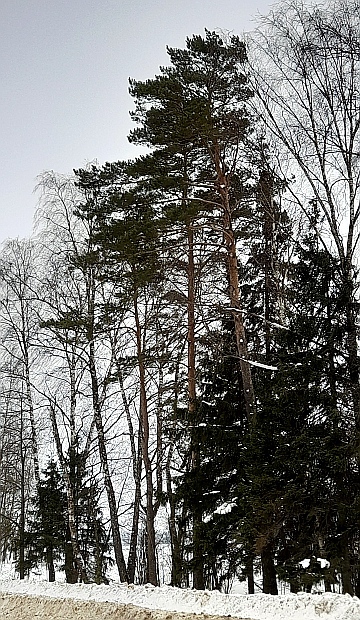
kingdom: Plantae
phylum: Tracheophyta
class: Pinopsida
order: Pinales
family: Pinaceae
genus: Pinus
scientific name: Pinus sylvestris
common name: Scots pine
